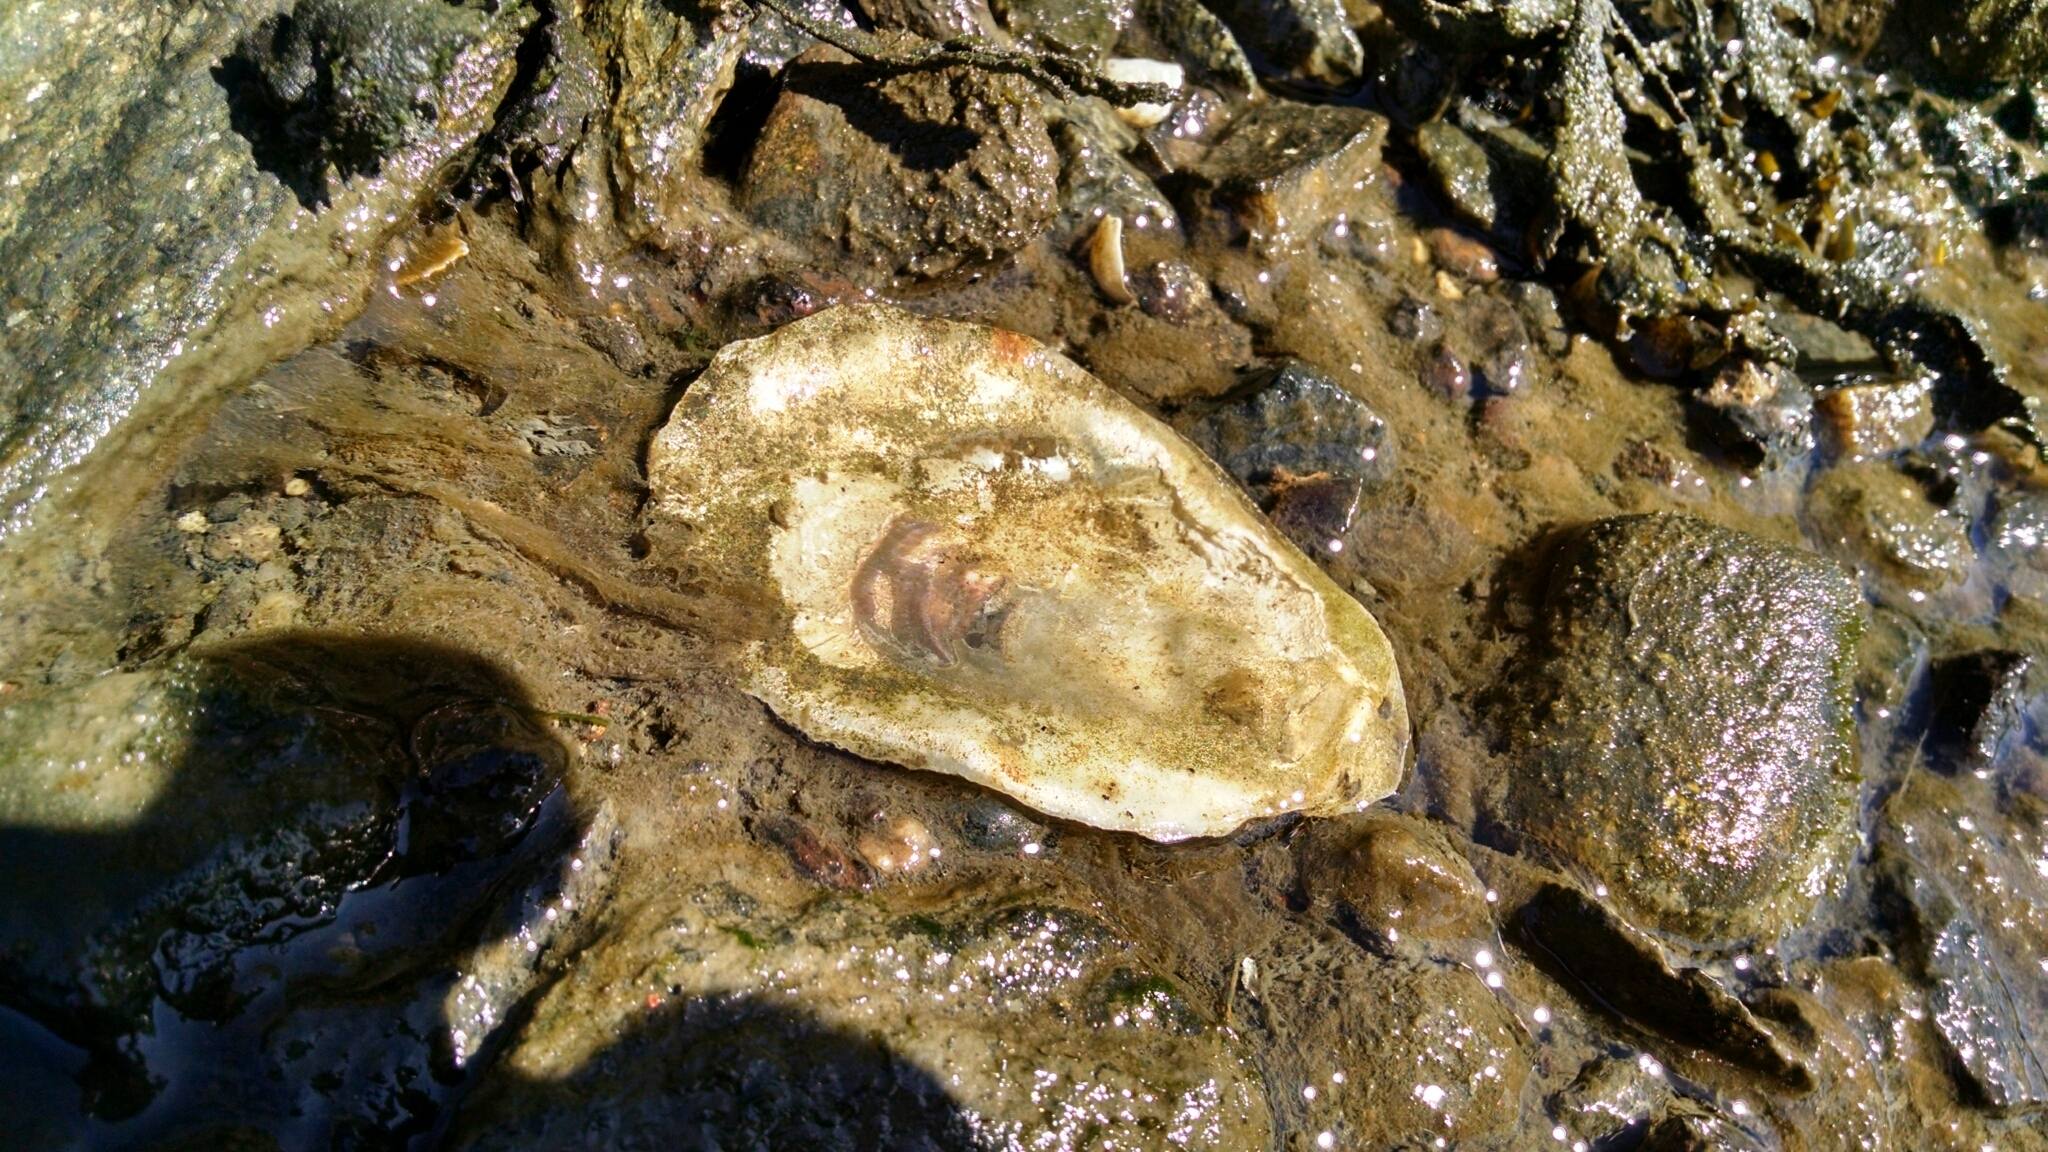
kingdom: Animalia
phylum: Mollusca
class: Bivalvia
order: Ostreida
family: Ostreidae
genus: Crassostrea
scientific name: Crassostrea virginica
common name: American oyster
